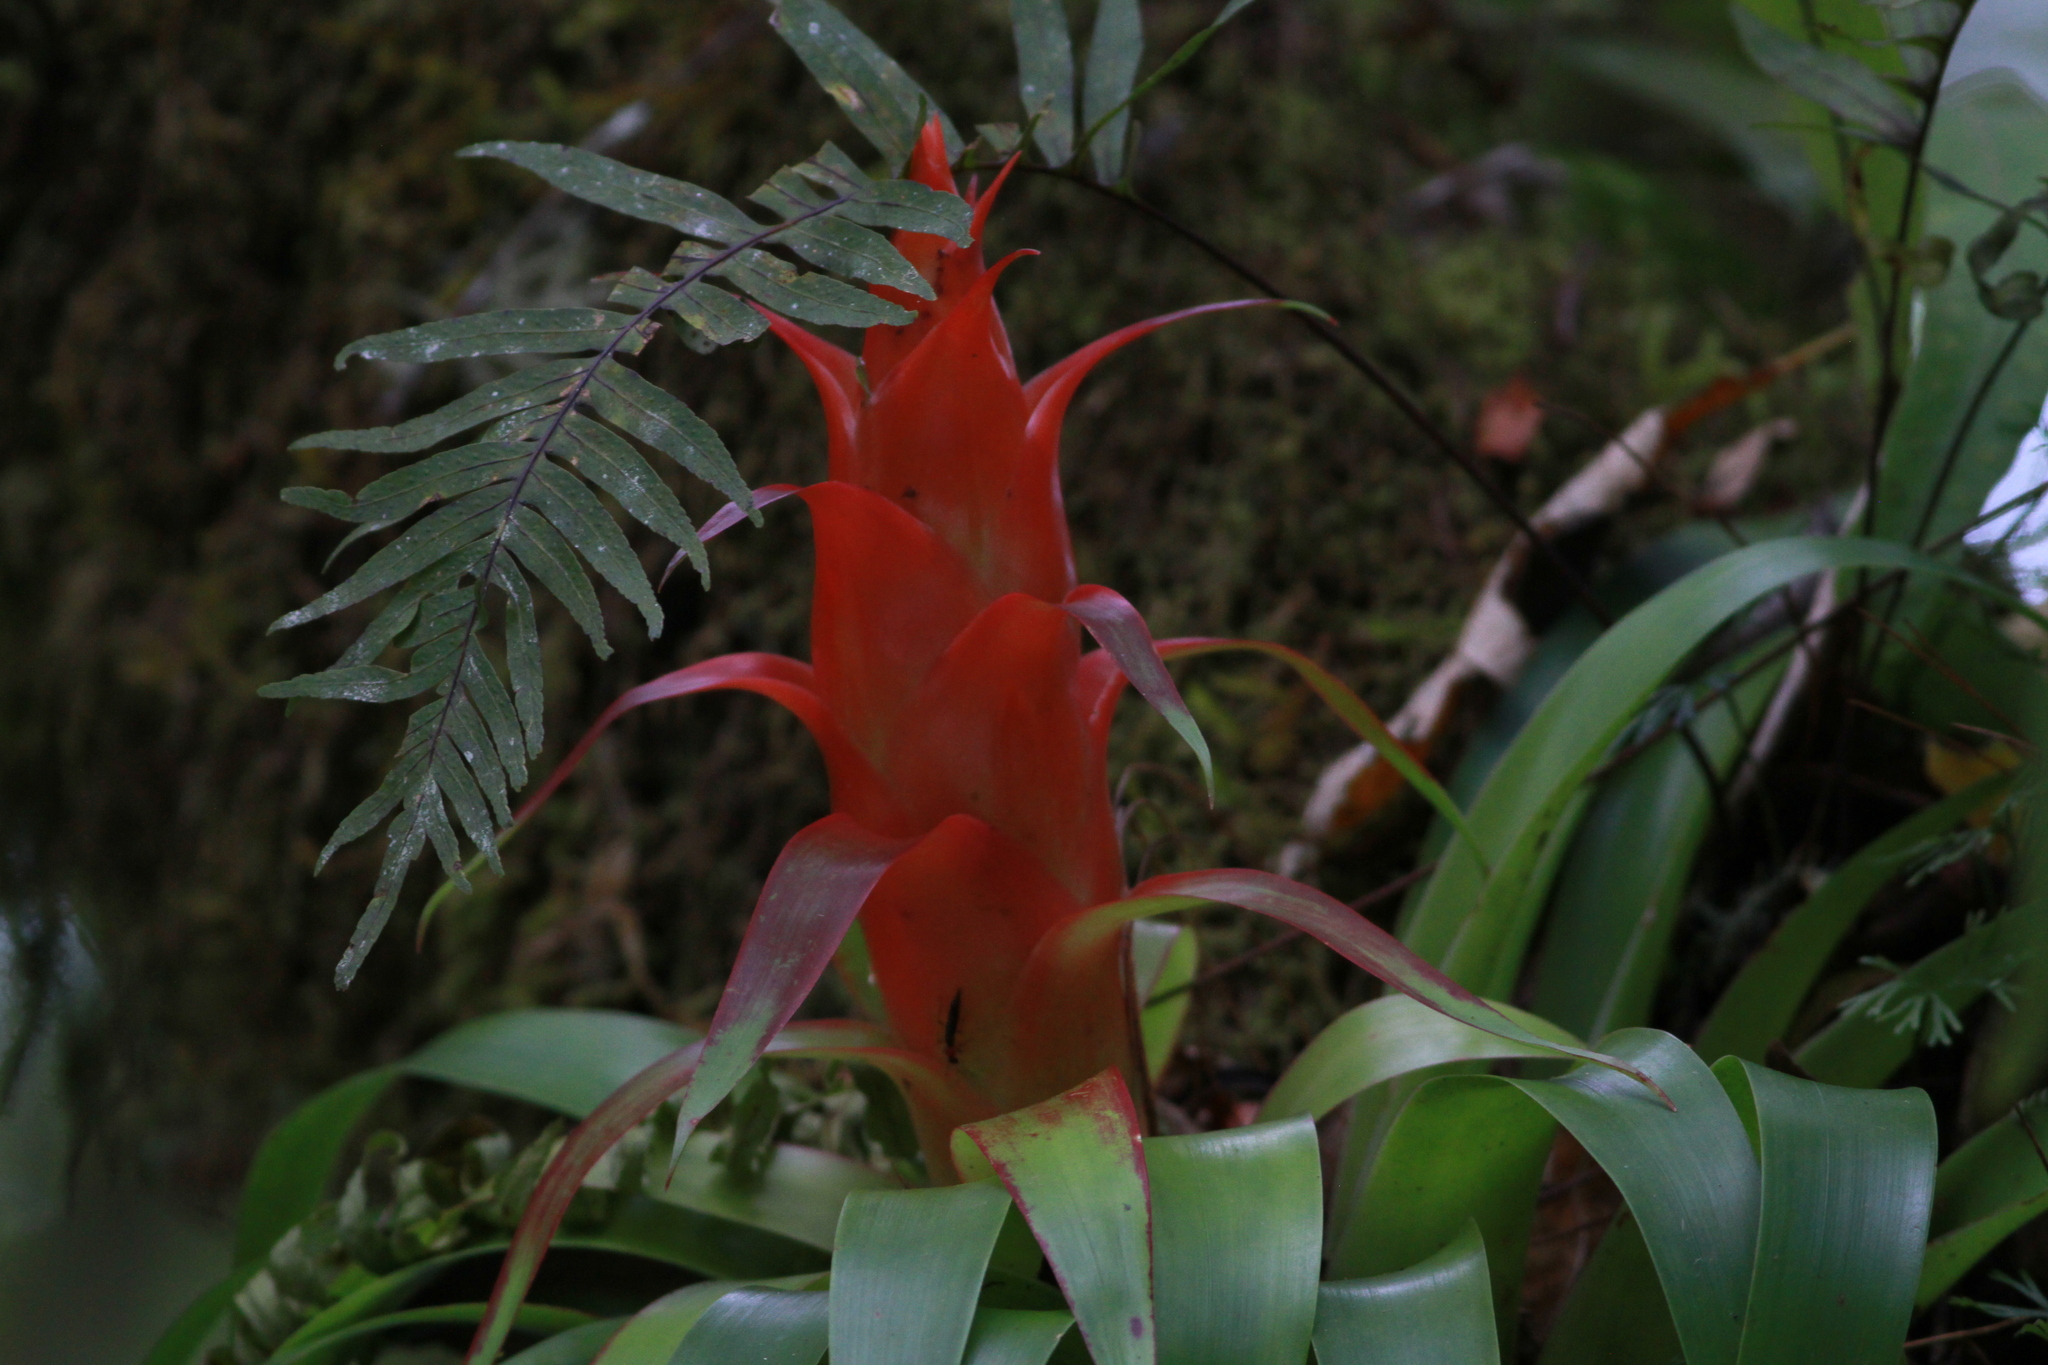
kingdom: Plantae
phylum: Tracheophyta
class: Liliopsida
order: Poales
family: Bromeliaceae
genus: Tillandsia
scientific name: Tillandsia imperialis
